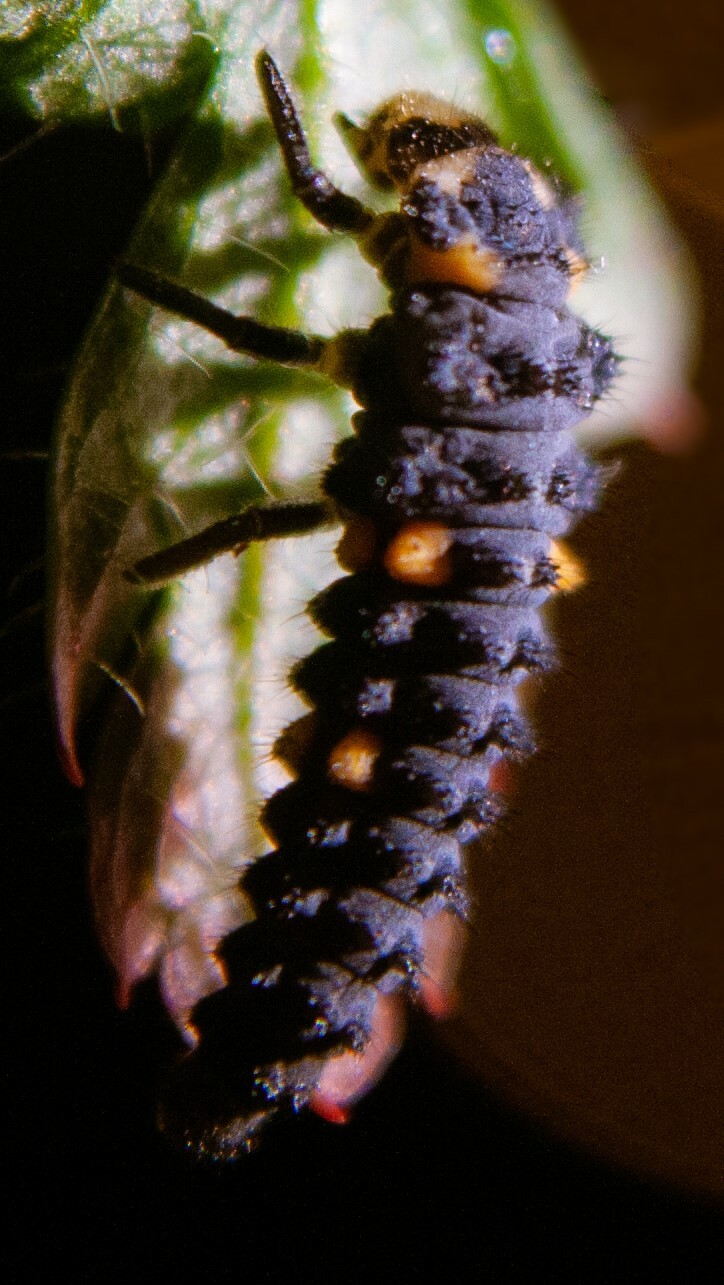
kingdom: Animalia
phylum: Arthropoda
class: Insecta
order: Coleoptera
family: Coccinellidae
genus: Coccinella
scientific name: Coccinella septempunctata
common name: Sevenspotted lady beetle
